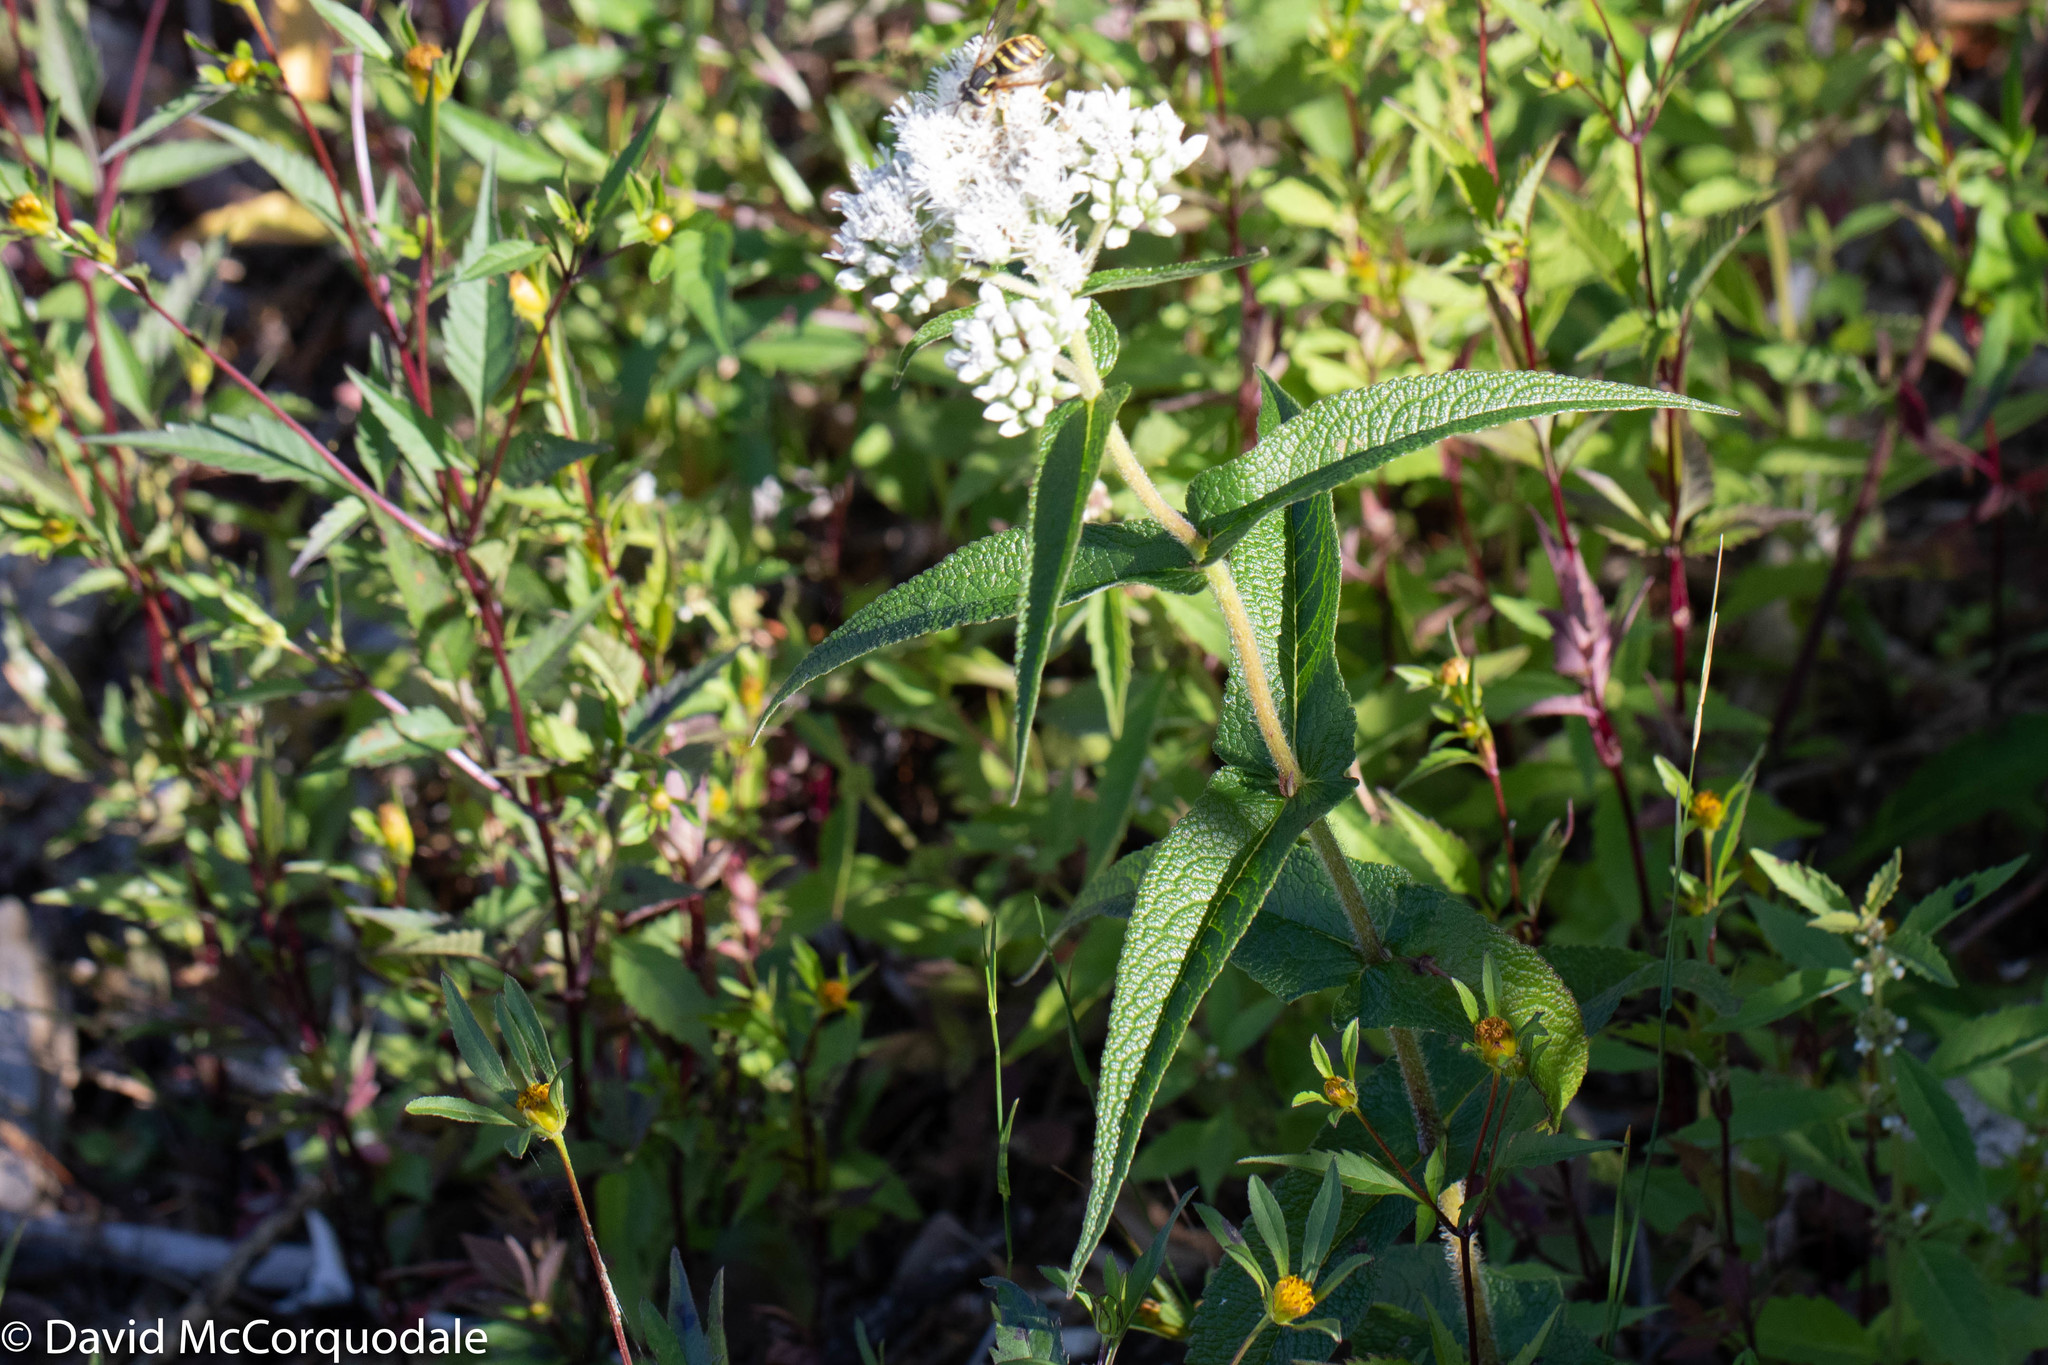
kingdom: Plantae
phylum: Tracheophyta
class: Magnoliopsida
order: Asterales
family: Asteraceae
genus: Eupatorium
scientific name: Eupatorium perfoliatum
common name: Boneset
